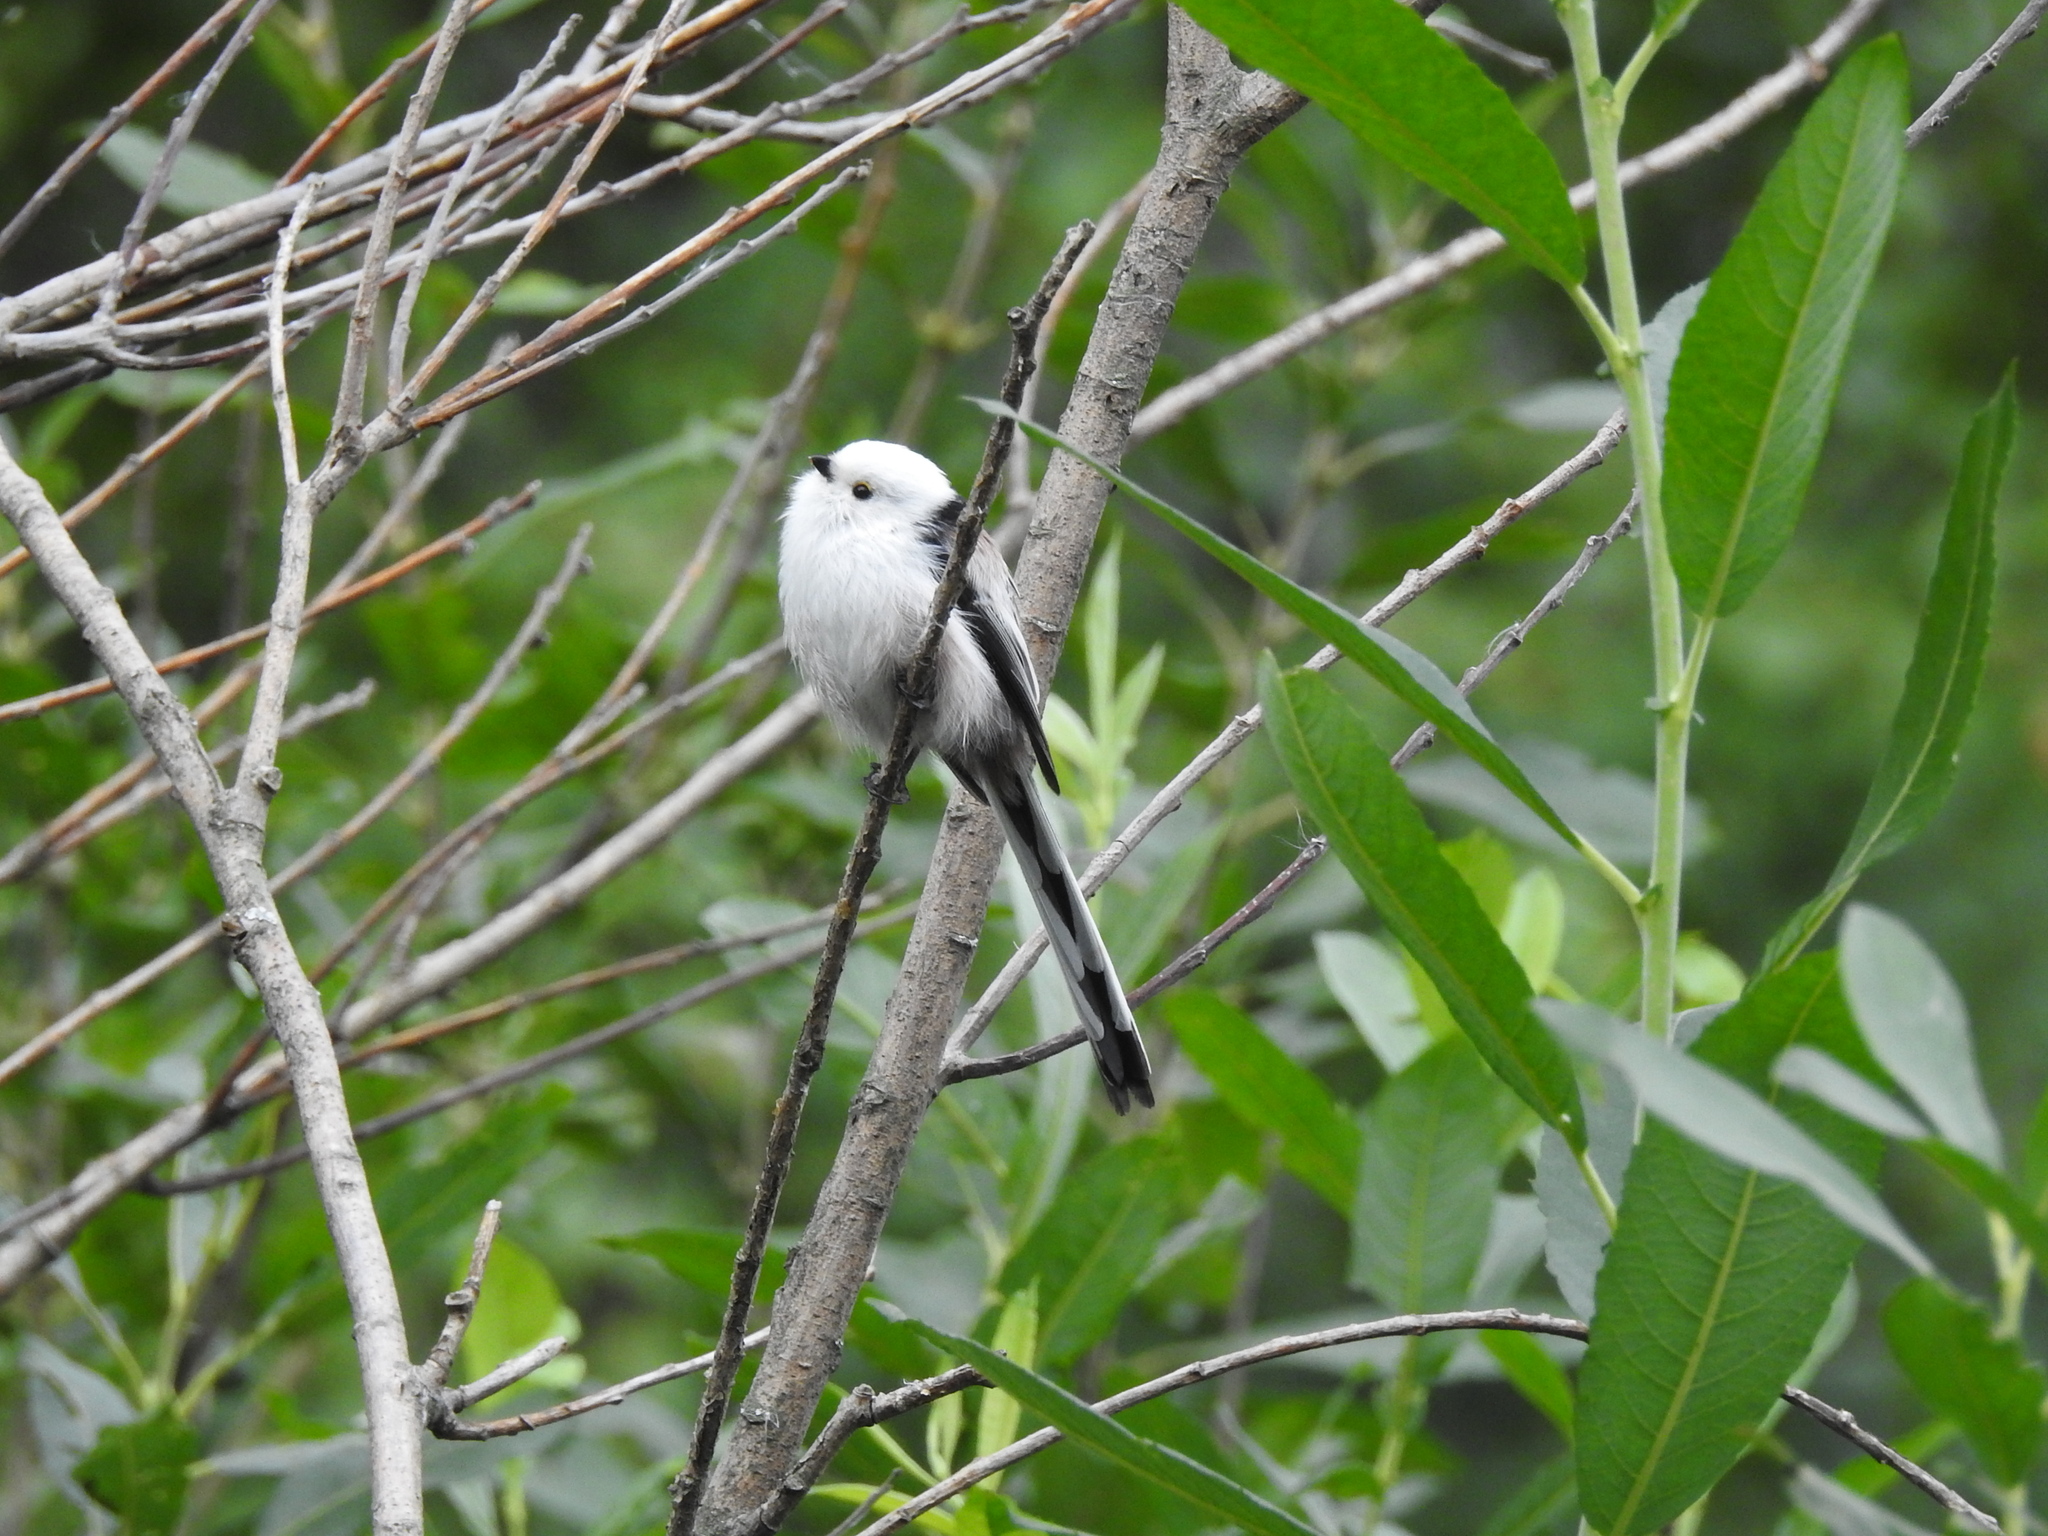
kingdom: Animalia
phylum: Chordata
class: Aves
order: Passeriformes
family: Aegithalidae
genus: Aegithalos
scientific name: Aegithalos caudatus
